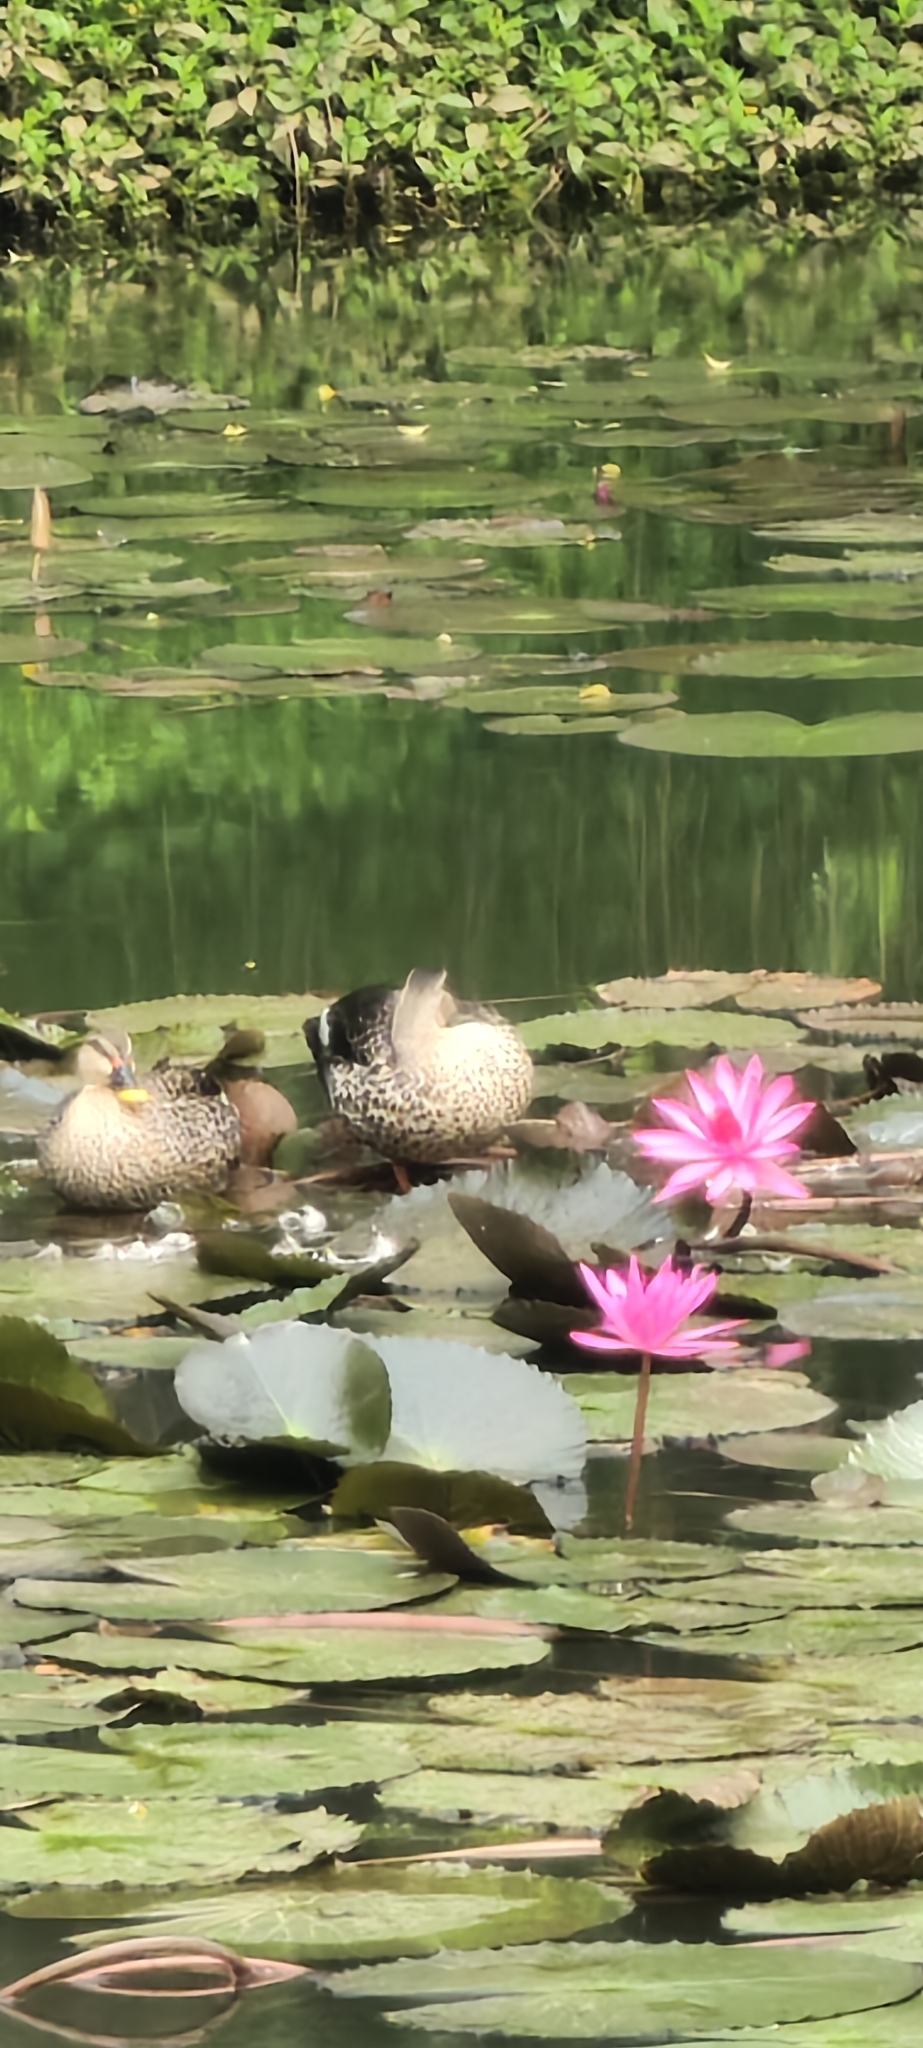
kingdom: Animalia
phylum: Chordata
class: Aves
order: Anseriformes
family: Anatidae
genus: Anas
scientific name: Anas poecilorhyncha
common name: Indian spot-billed duck
